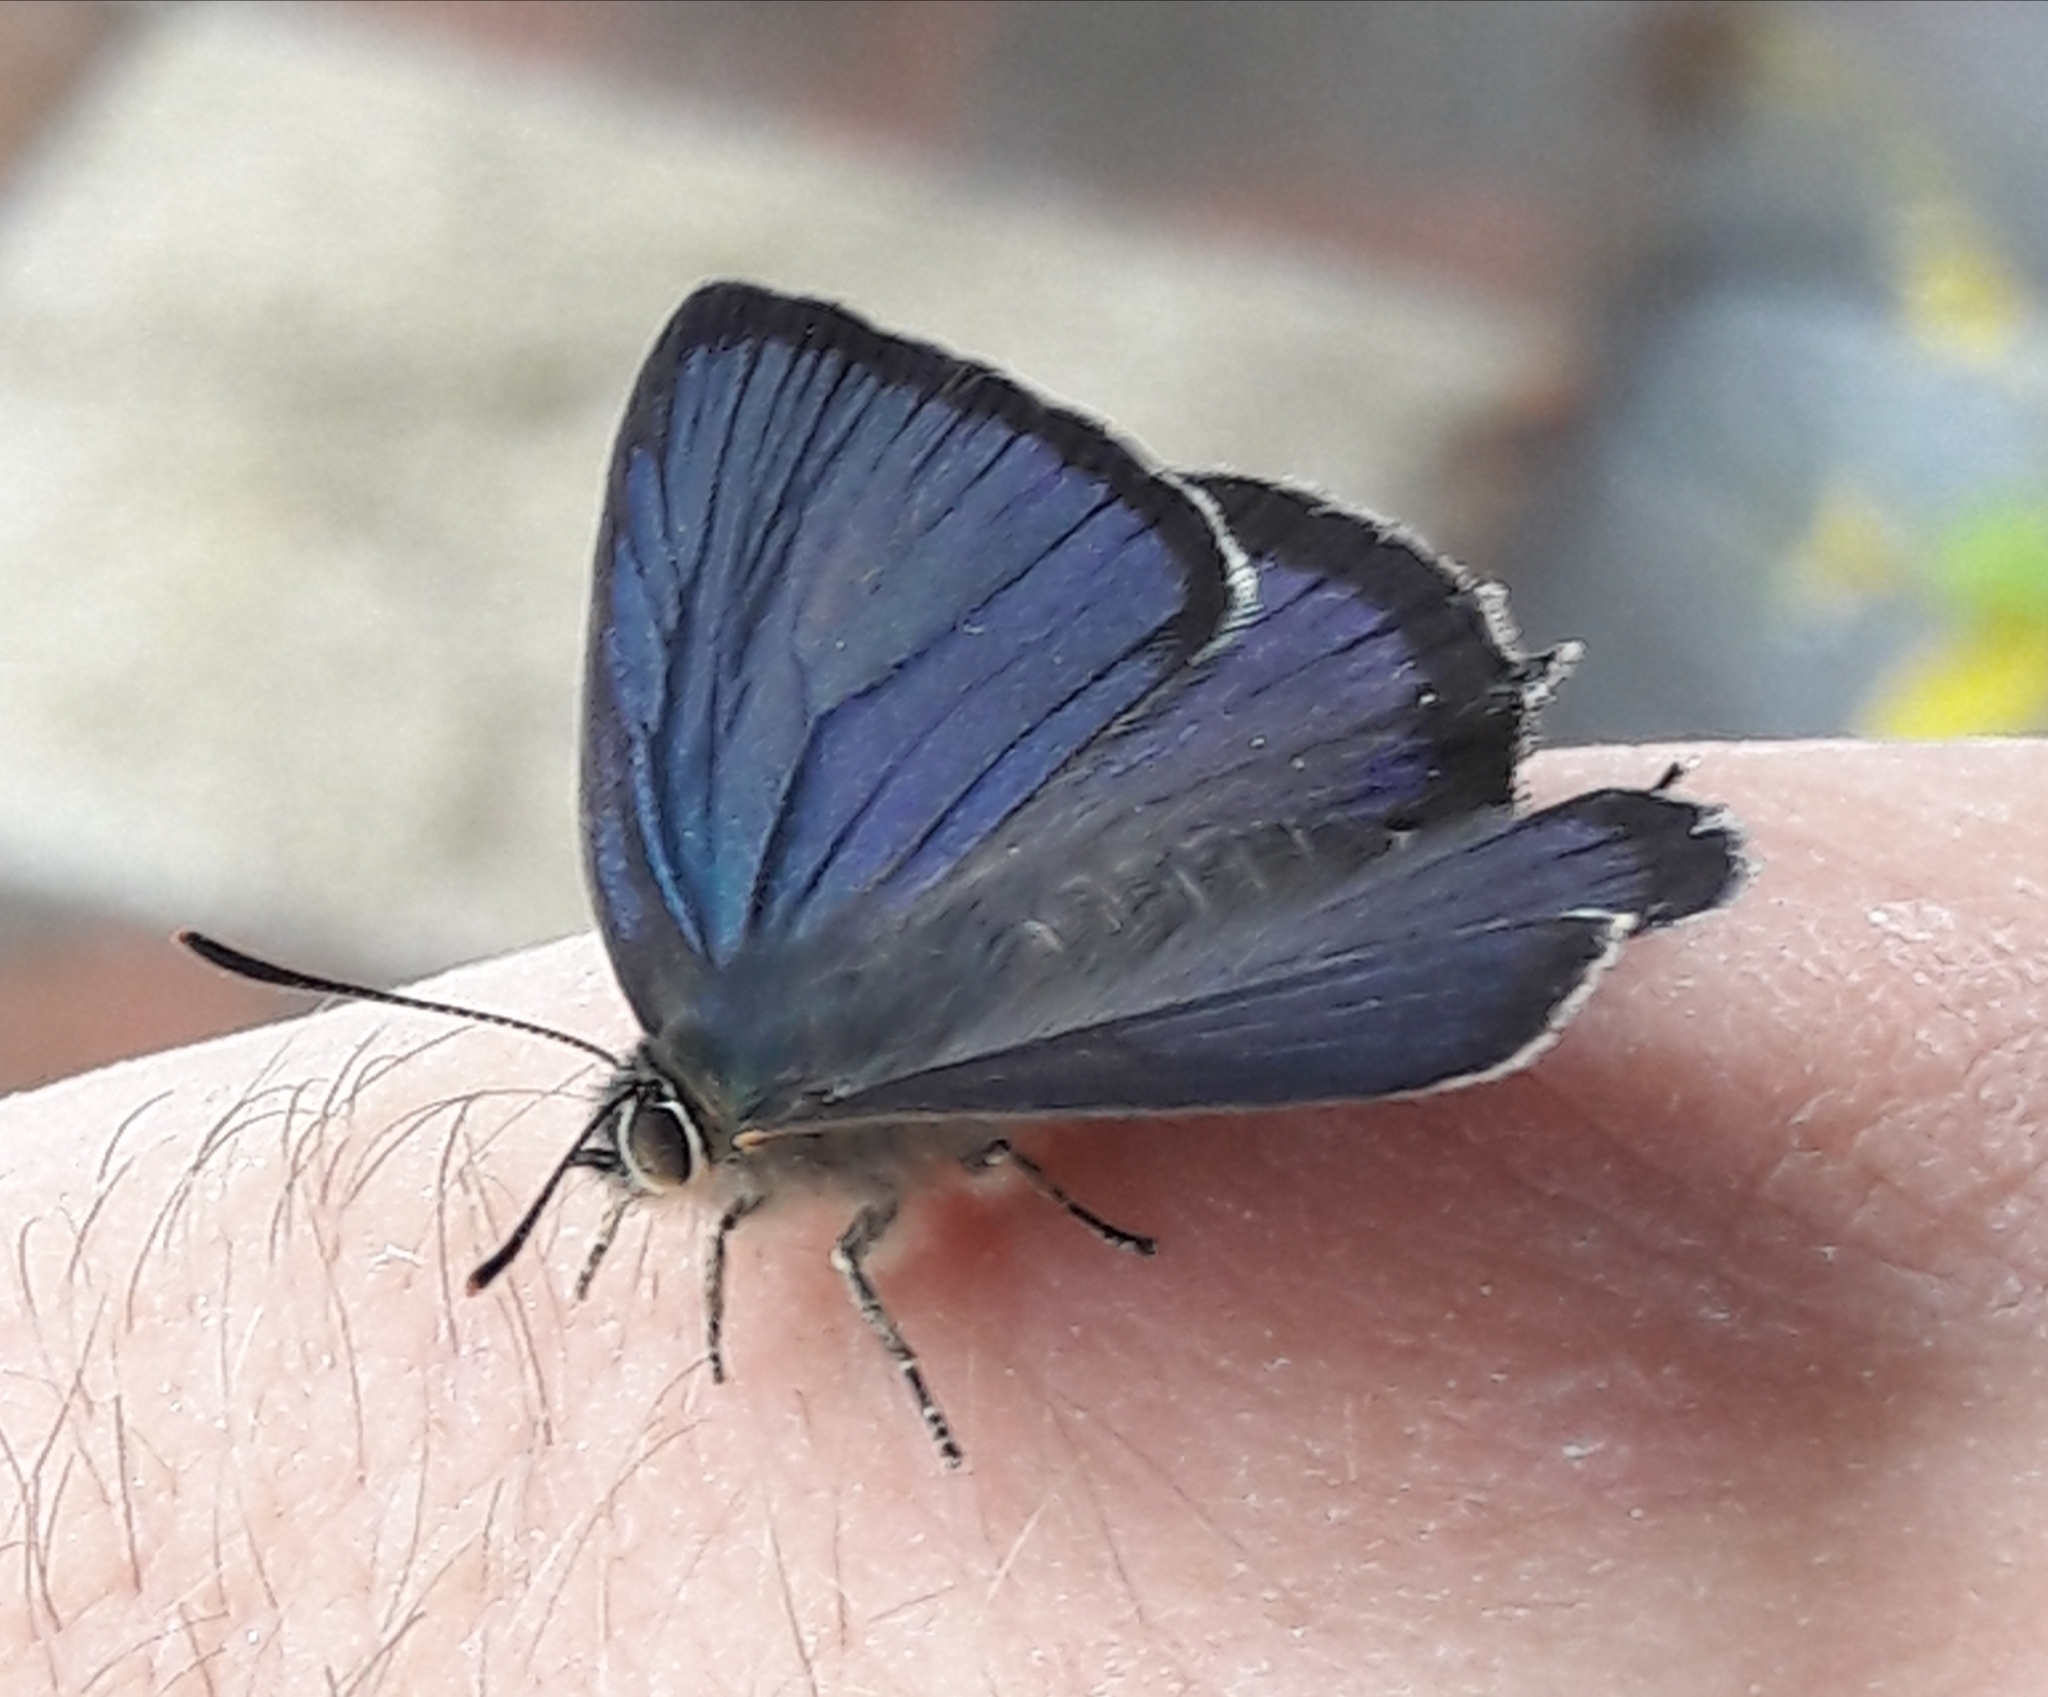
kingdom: Animalia
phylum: Arthropoda
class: Insecta
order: Lepidoptera
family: Lycaenidae
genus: Quercusia
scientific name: Quercusia quercus
